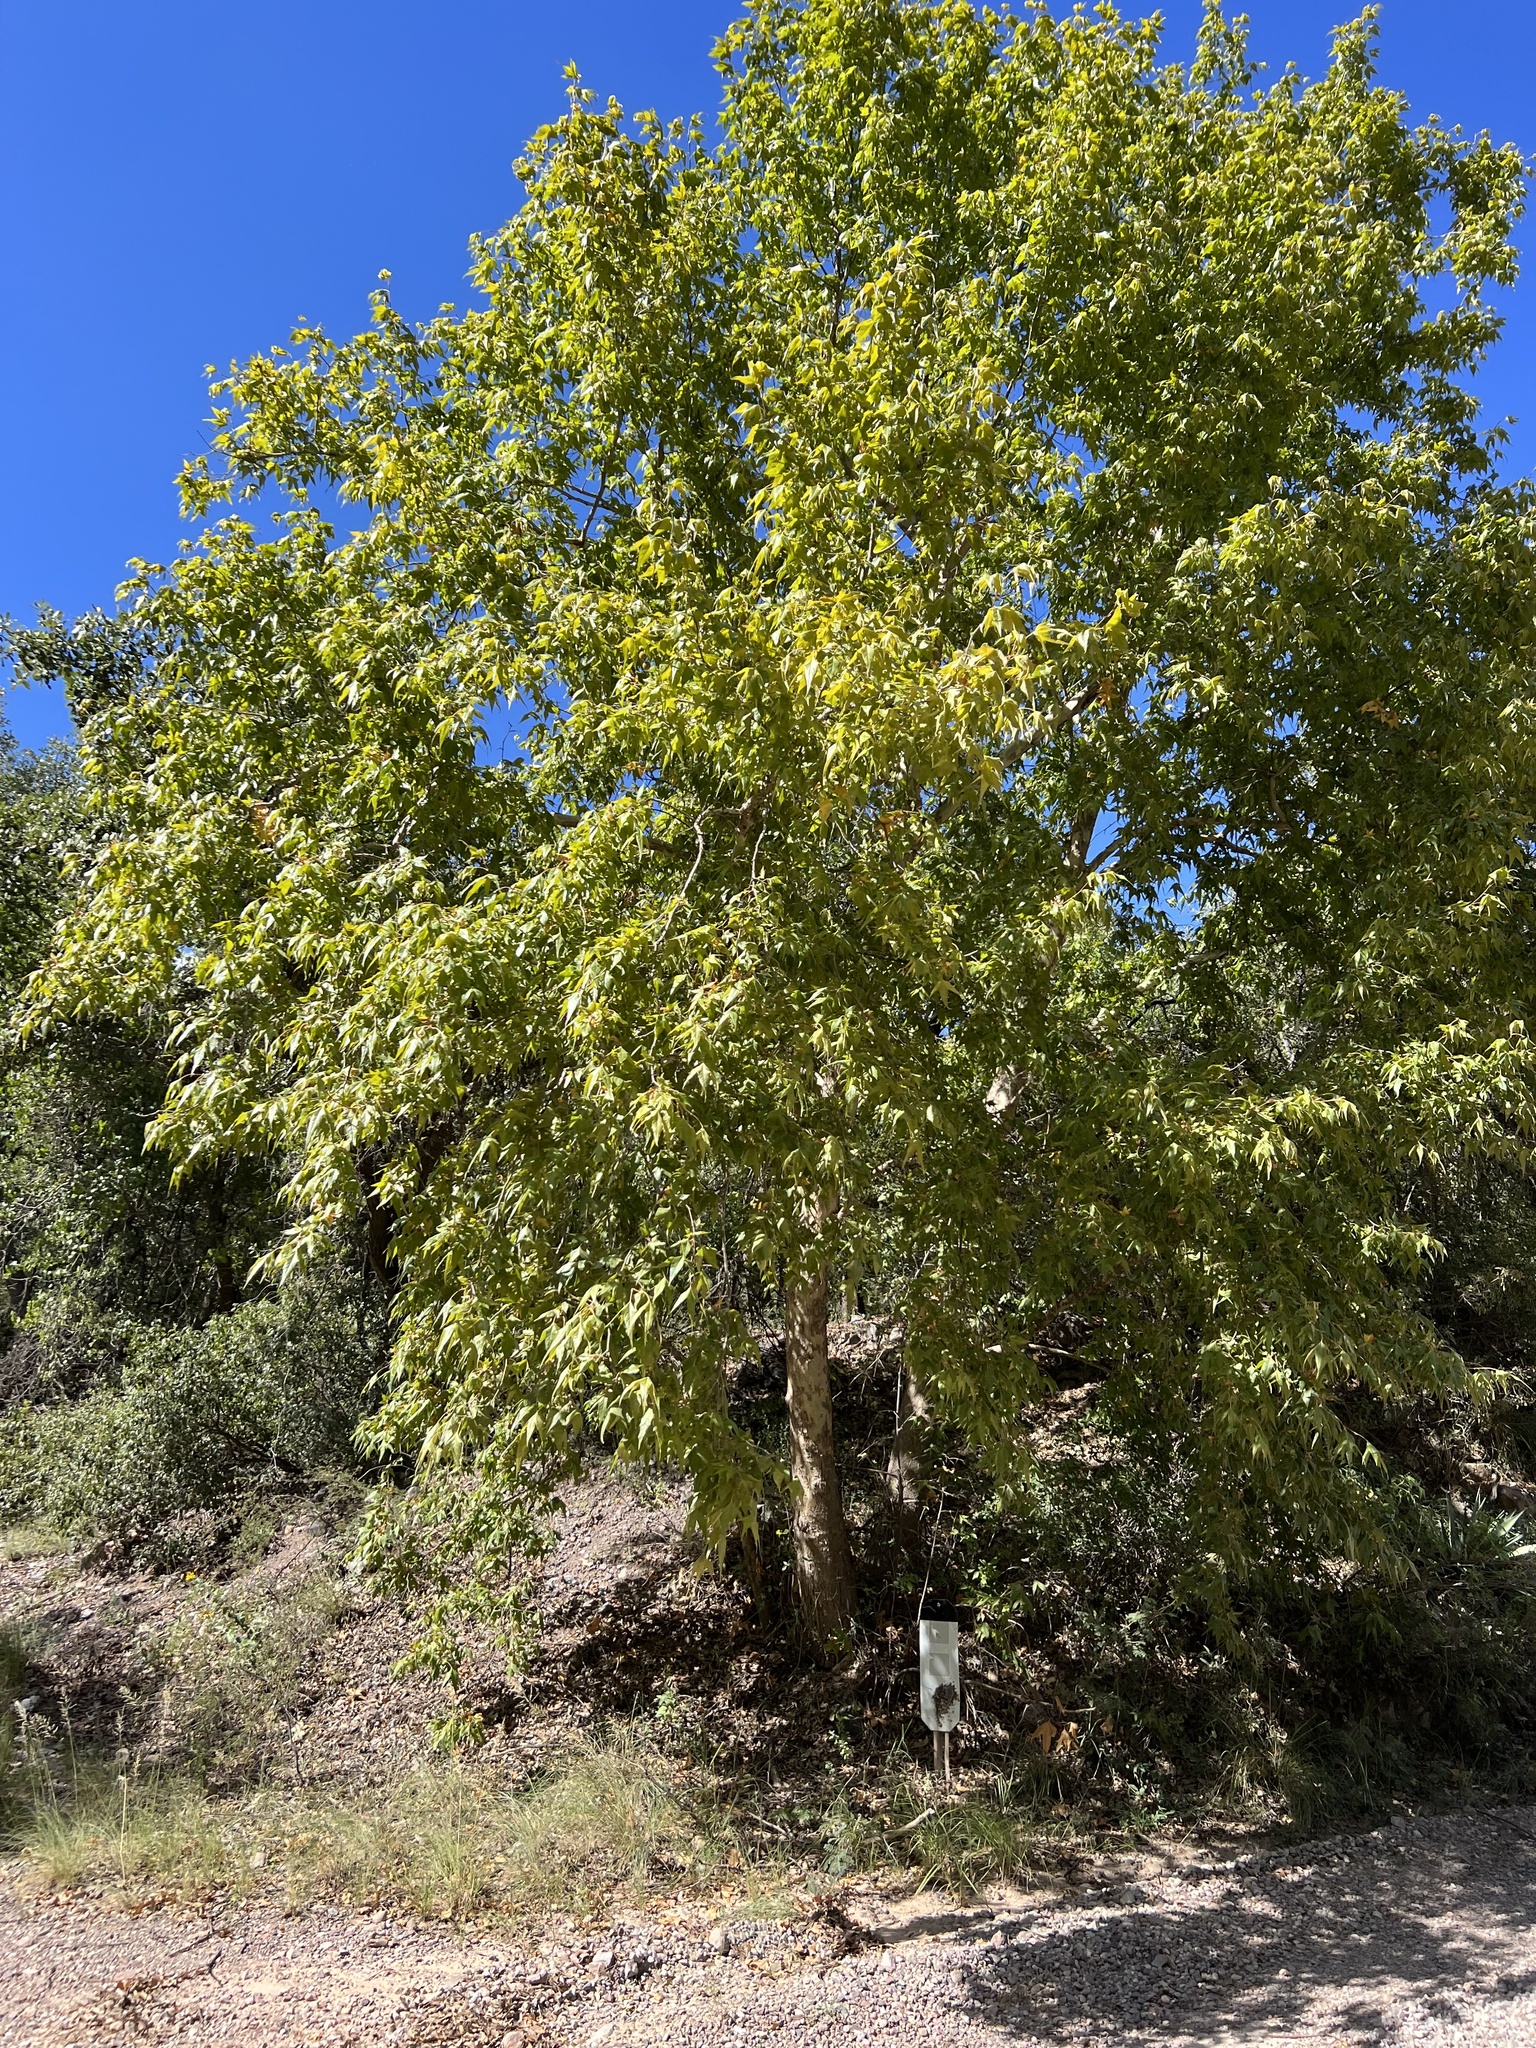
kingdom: Plantae
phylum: Tracheophyta
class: Magnoliopsida
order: Proteales
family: Platanaceae
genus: Platanus
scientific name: Platanus wrightii
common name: Arizona sycamore
